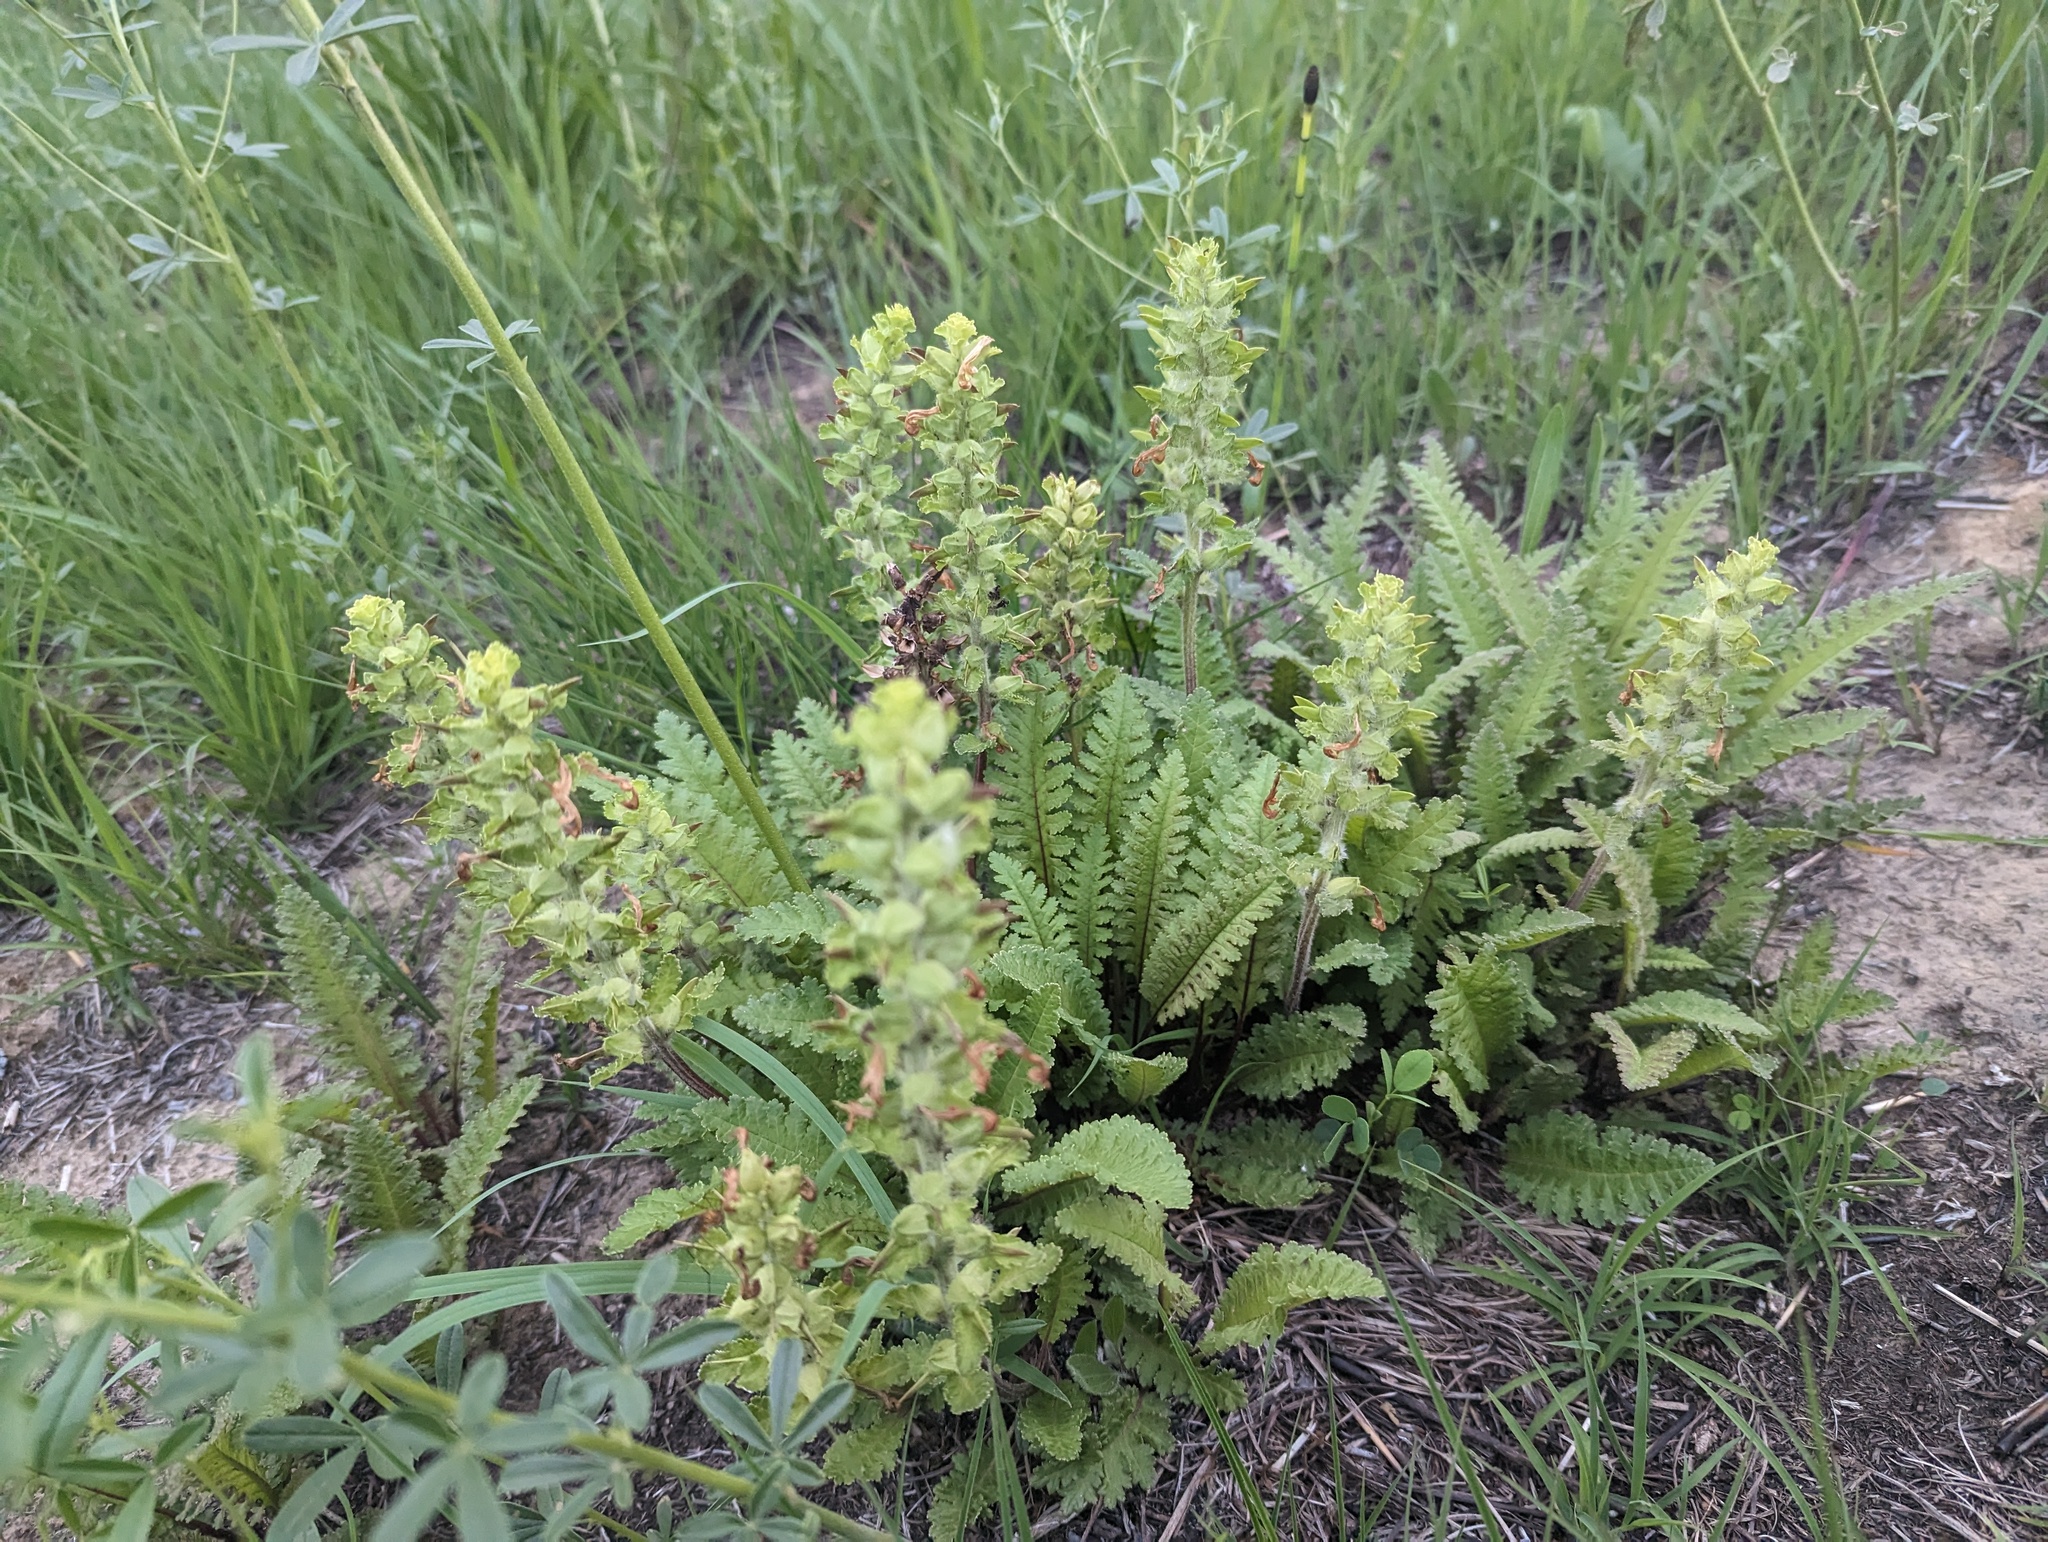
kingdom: Plantae
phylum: Tracheophyta
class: Magnoliopsida
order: Lamiales
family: Orobanchaceae
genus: Pedicularis
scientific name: Pedicularis canadensis
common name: Early lousewort
